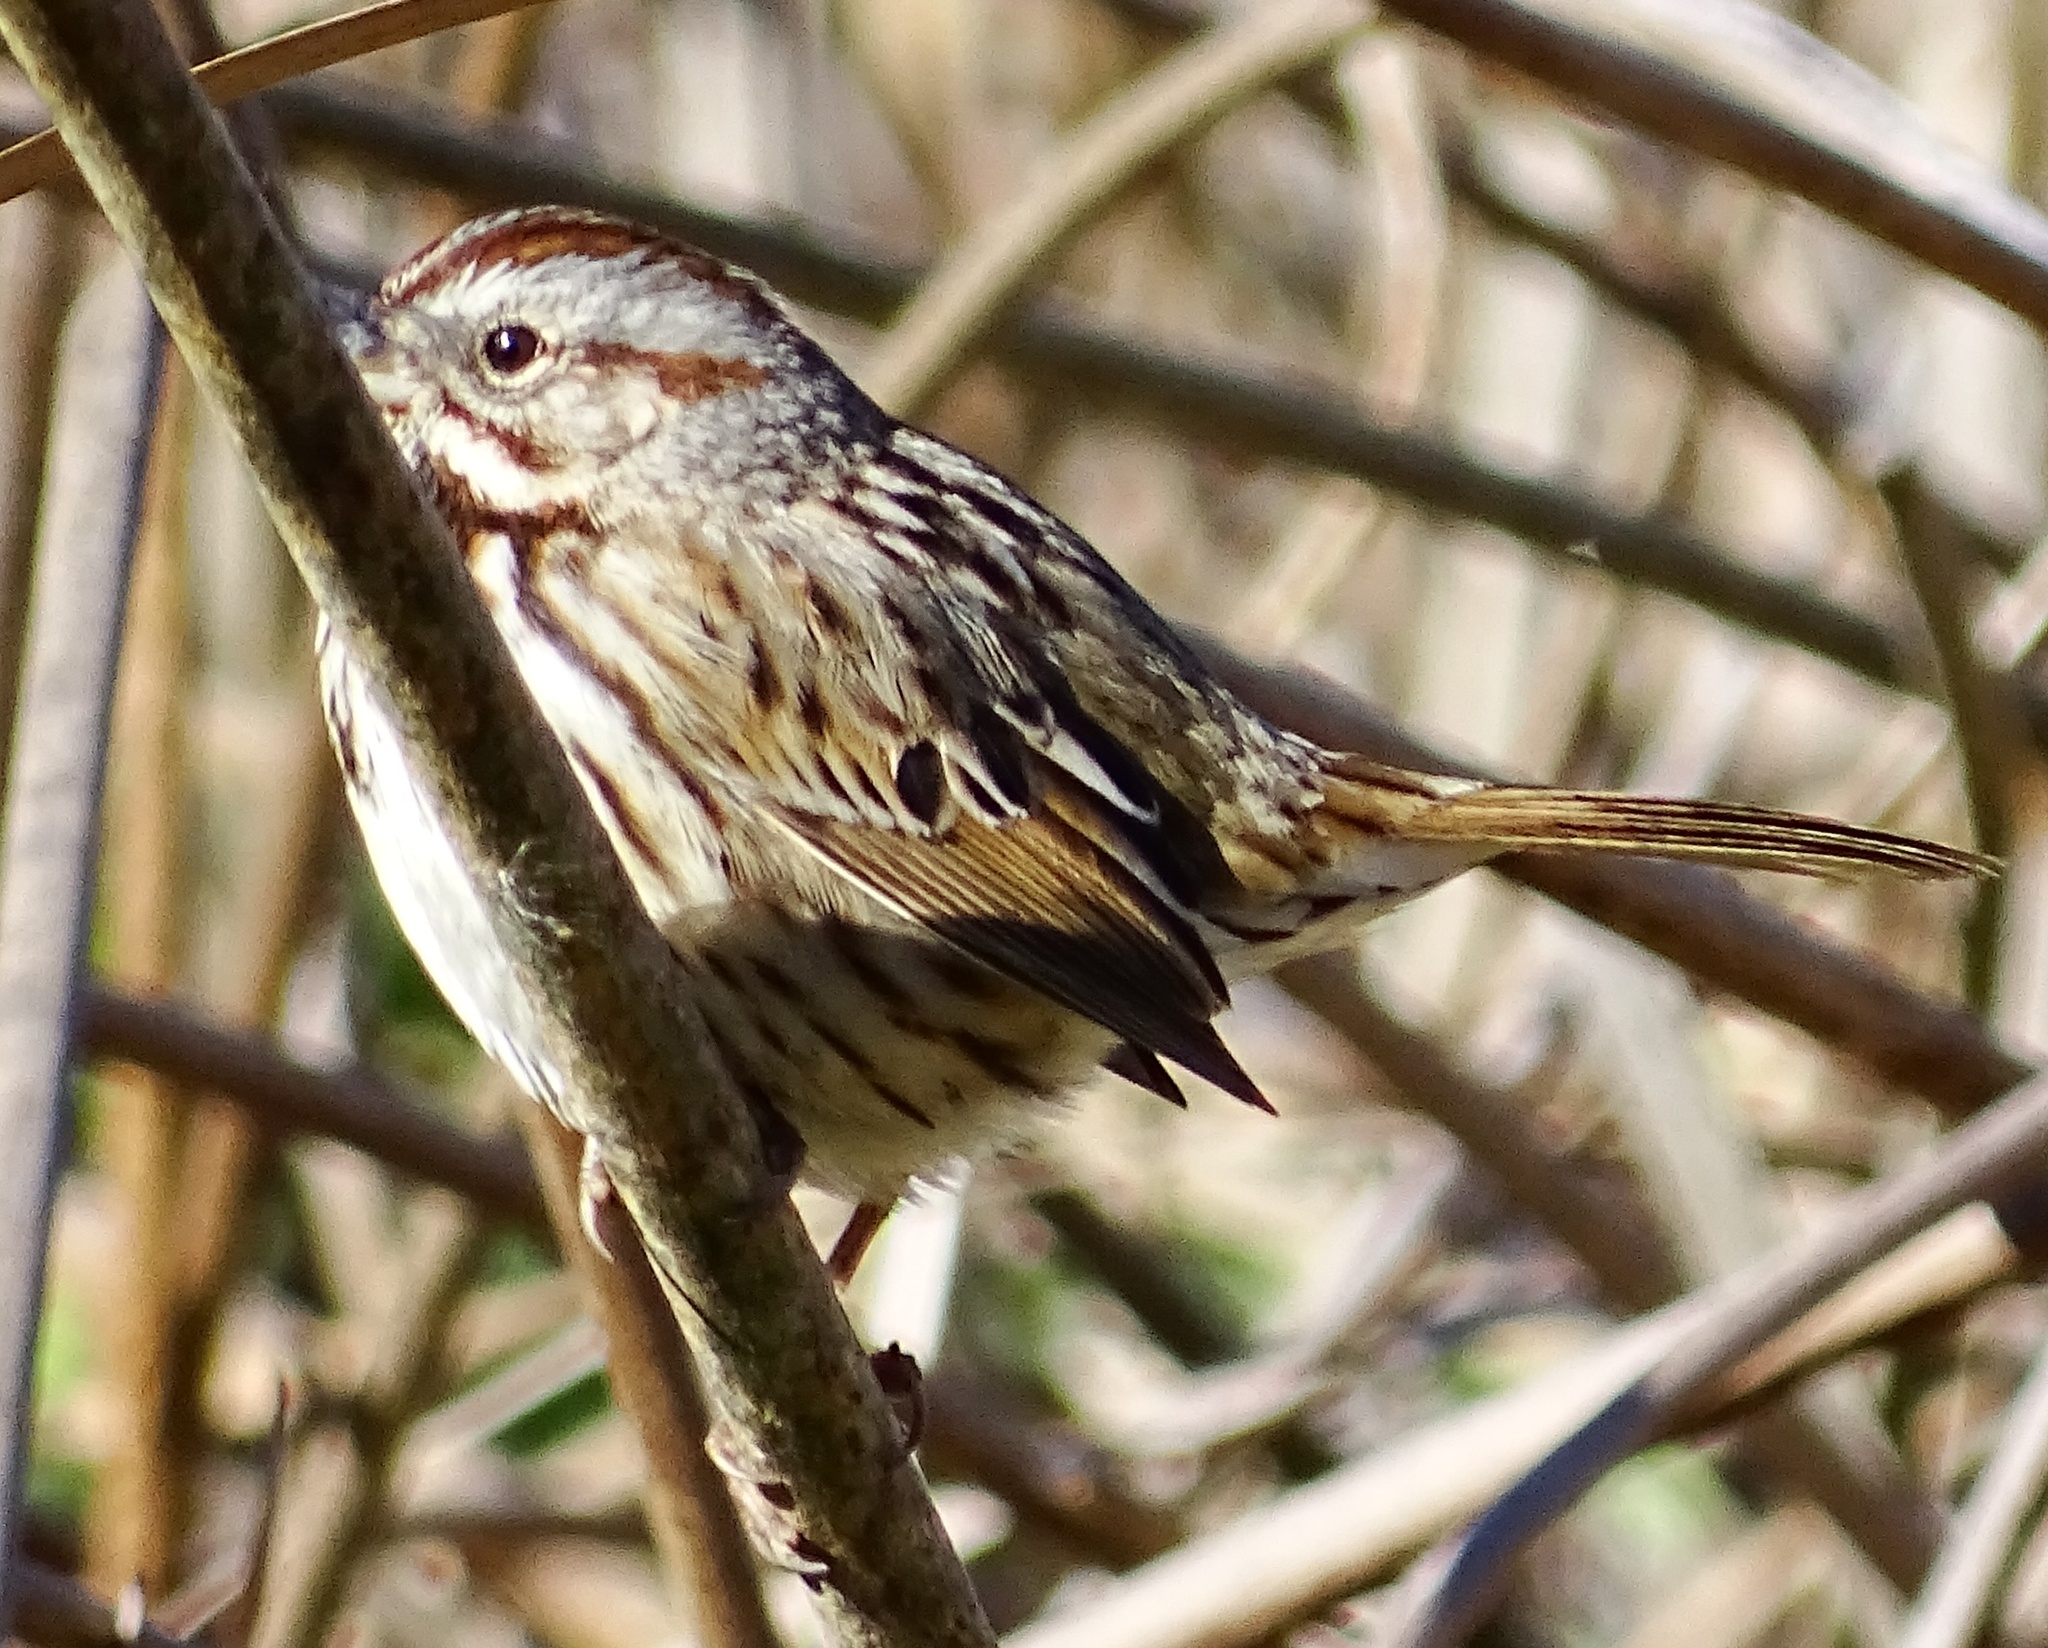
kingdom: Animalia
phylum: Chordata
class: Aves
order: Passeriformes
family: Passerellidae
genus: Melospiza
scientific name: Melospiza melodia
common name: Song sparrow
